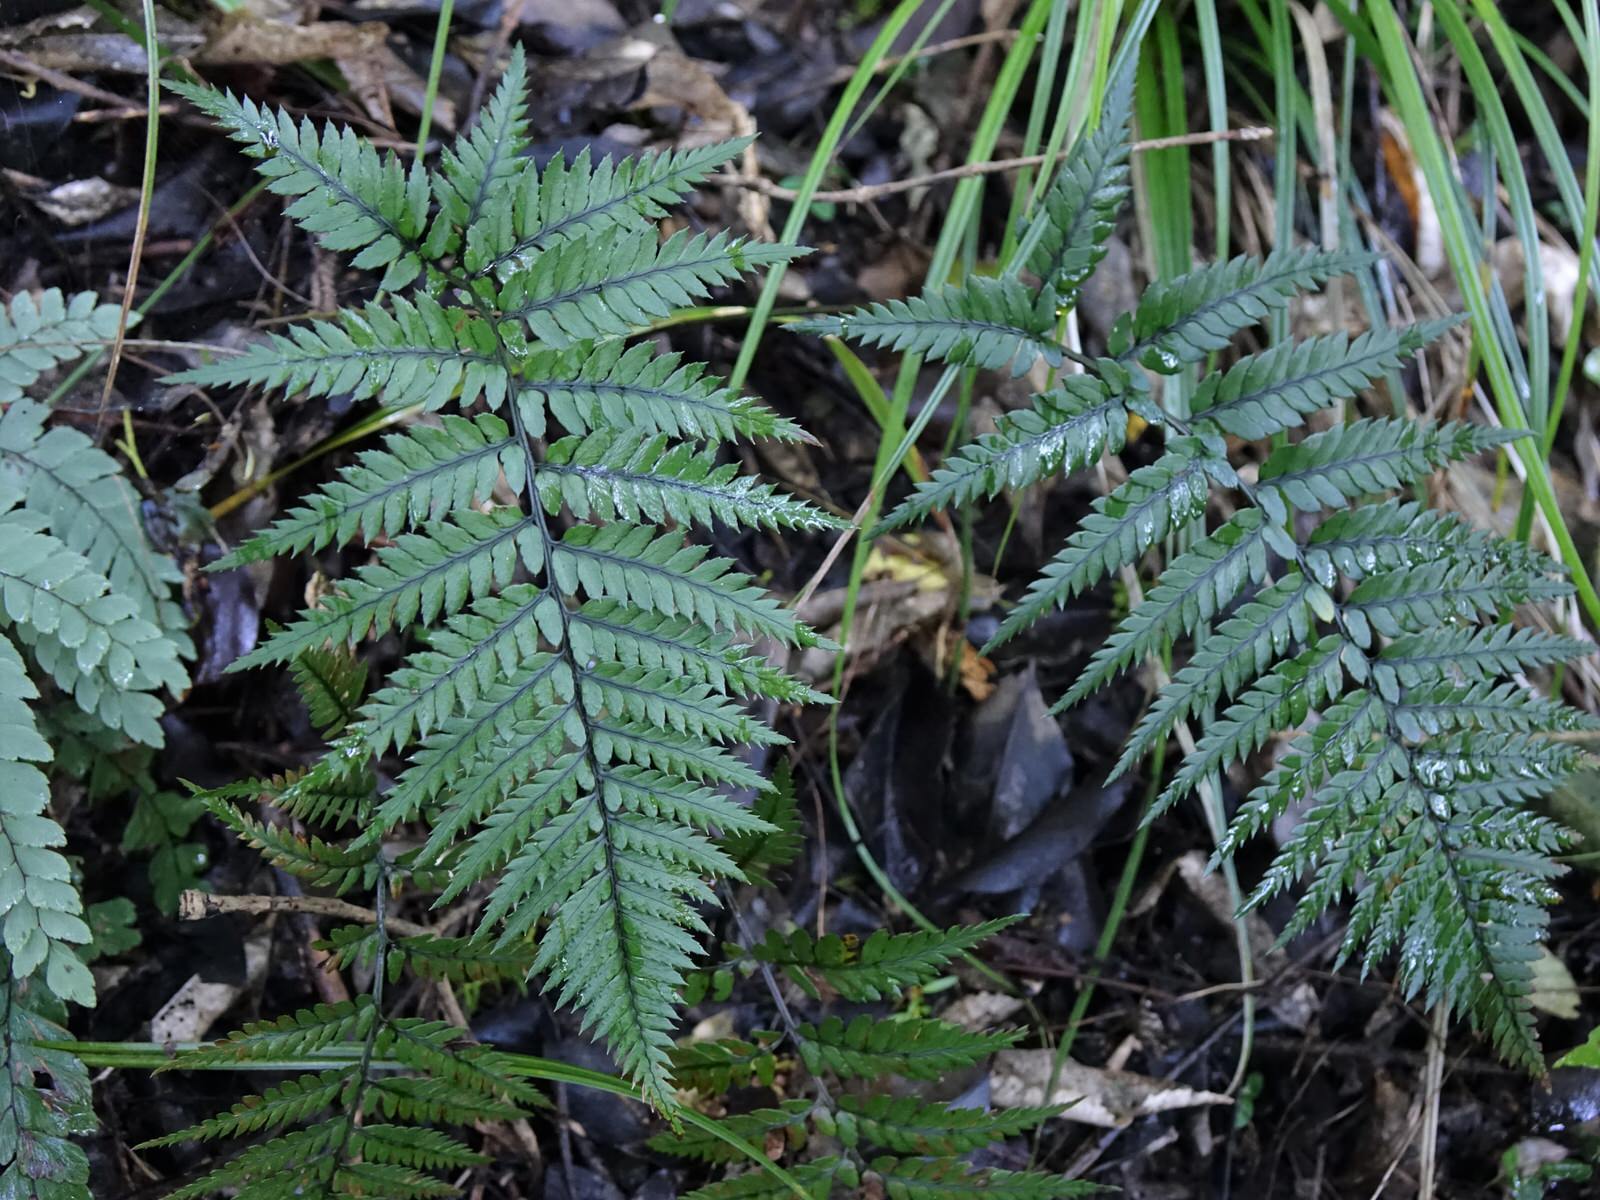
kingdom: Plantae
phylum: Tracheophyta
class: Polypodiopsida
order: Polypodiales
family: Dryopteridaceae
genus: Polystichum
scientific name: Polystichum neozelandicum
